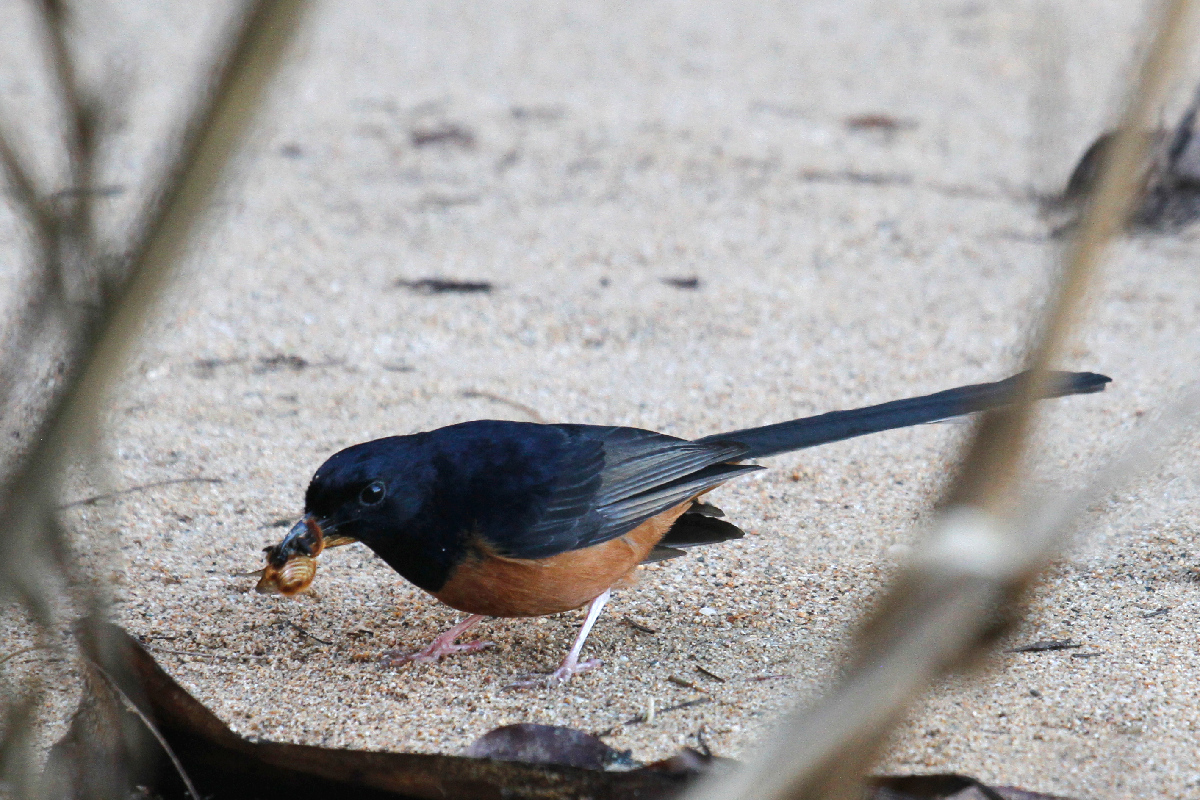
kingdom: Animalia
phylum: Chordata
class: Aves
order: Passeriformes
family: Muscicapidae
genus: Copsychus
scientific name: Copsychus malabaricus
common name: White-rumped shama
